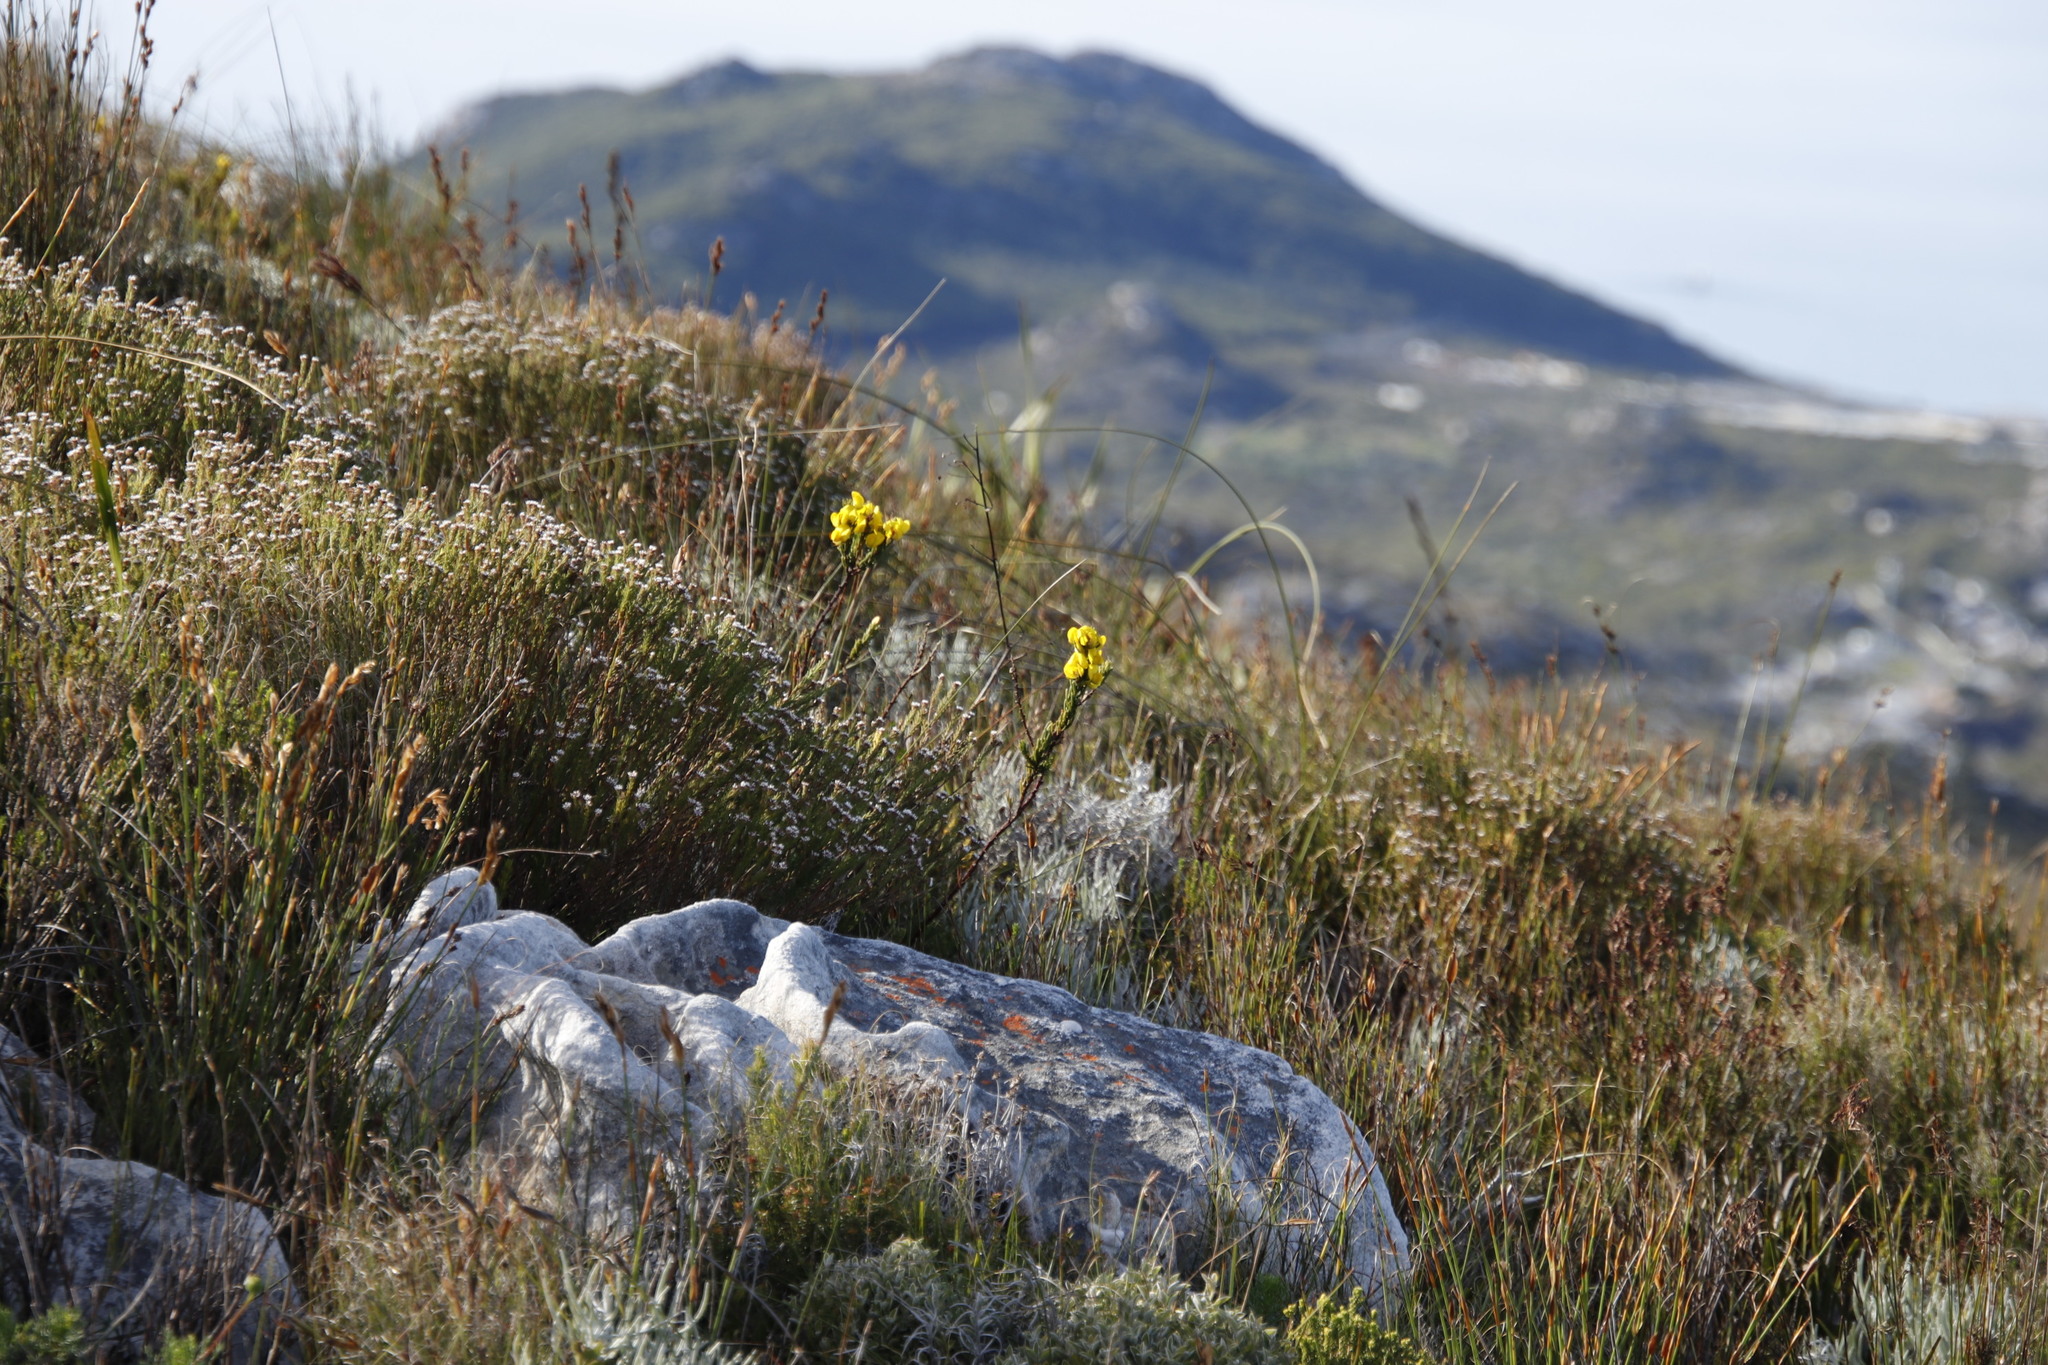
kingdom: Plantae
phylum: Tracheophyta
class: Magnoliopsida
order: Fabales
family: Fabaceae
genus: Cyclopia
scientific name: Cyclopia galioides
